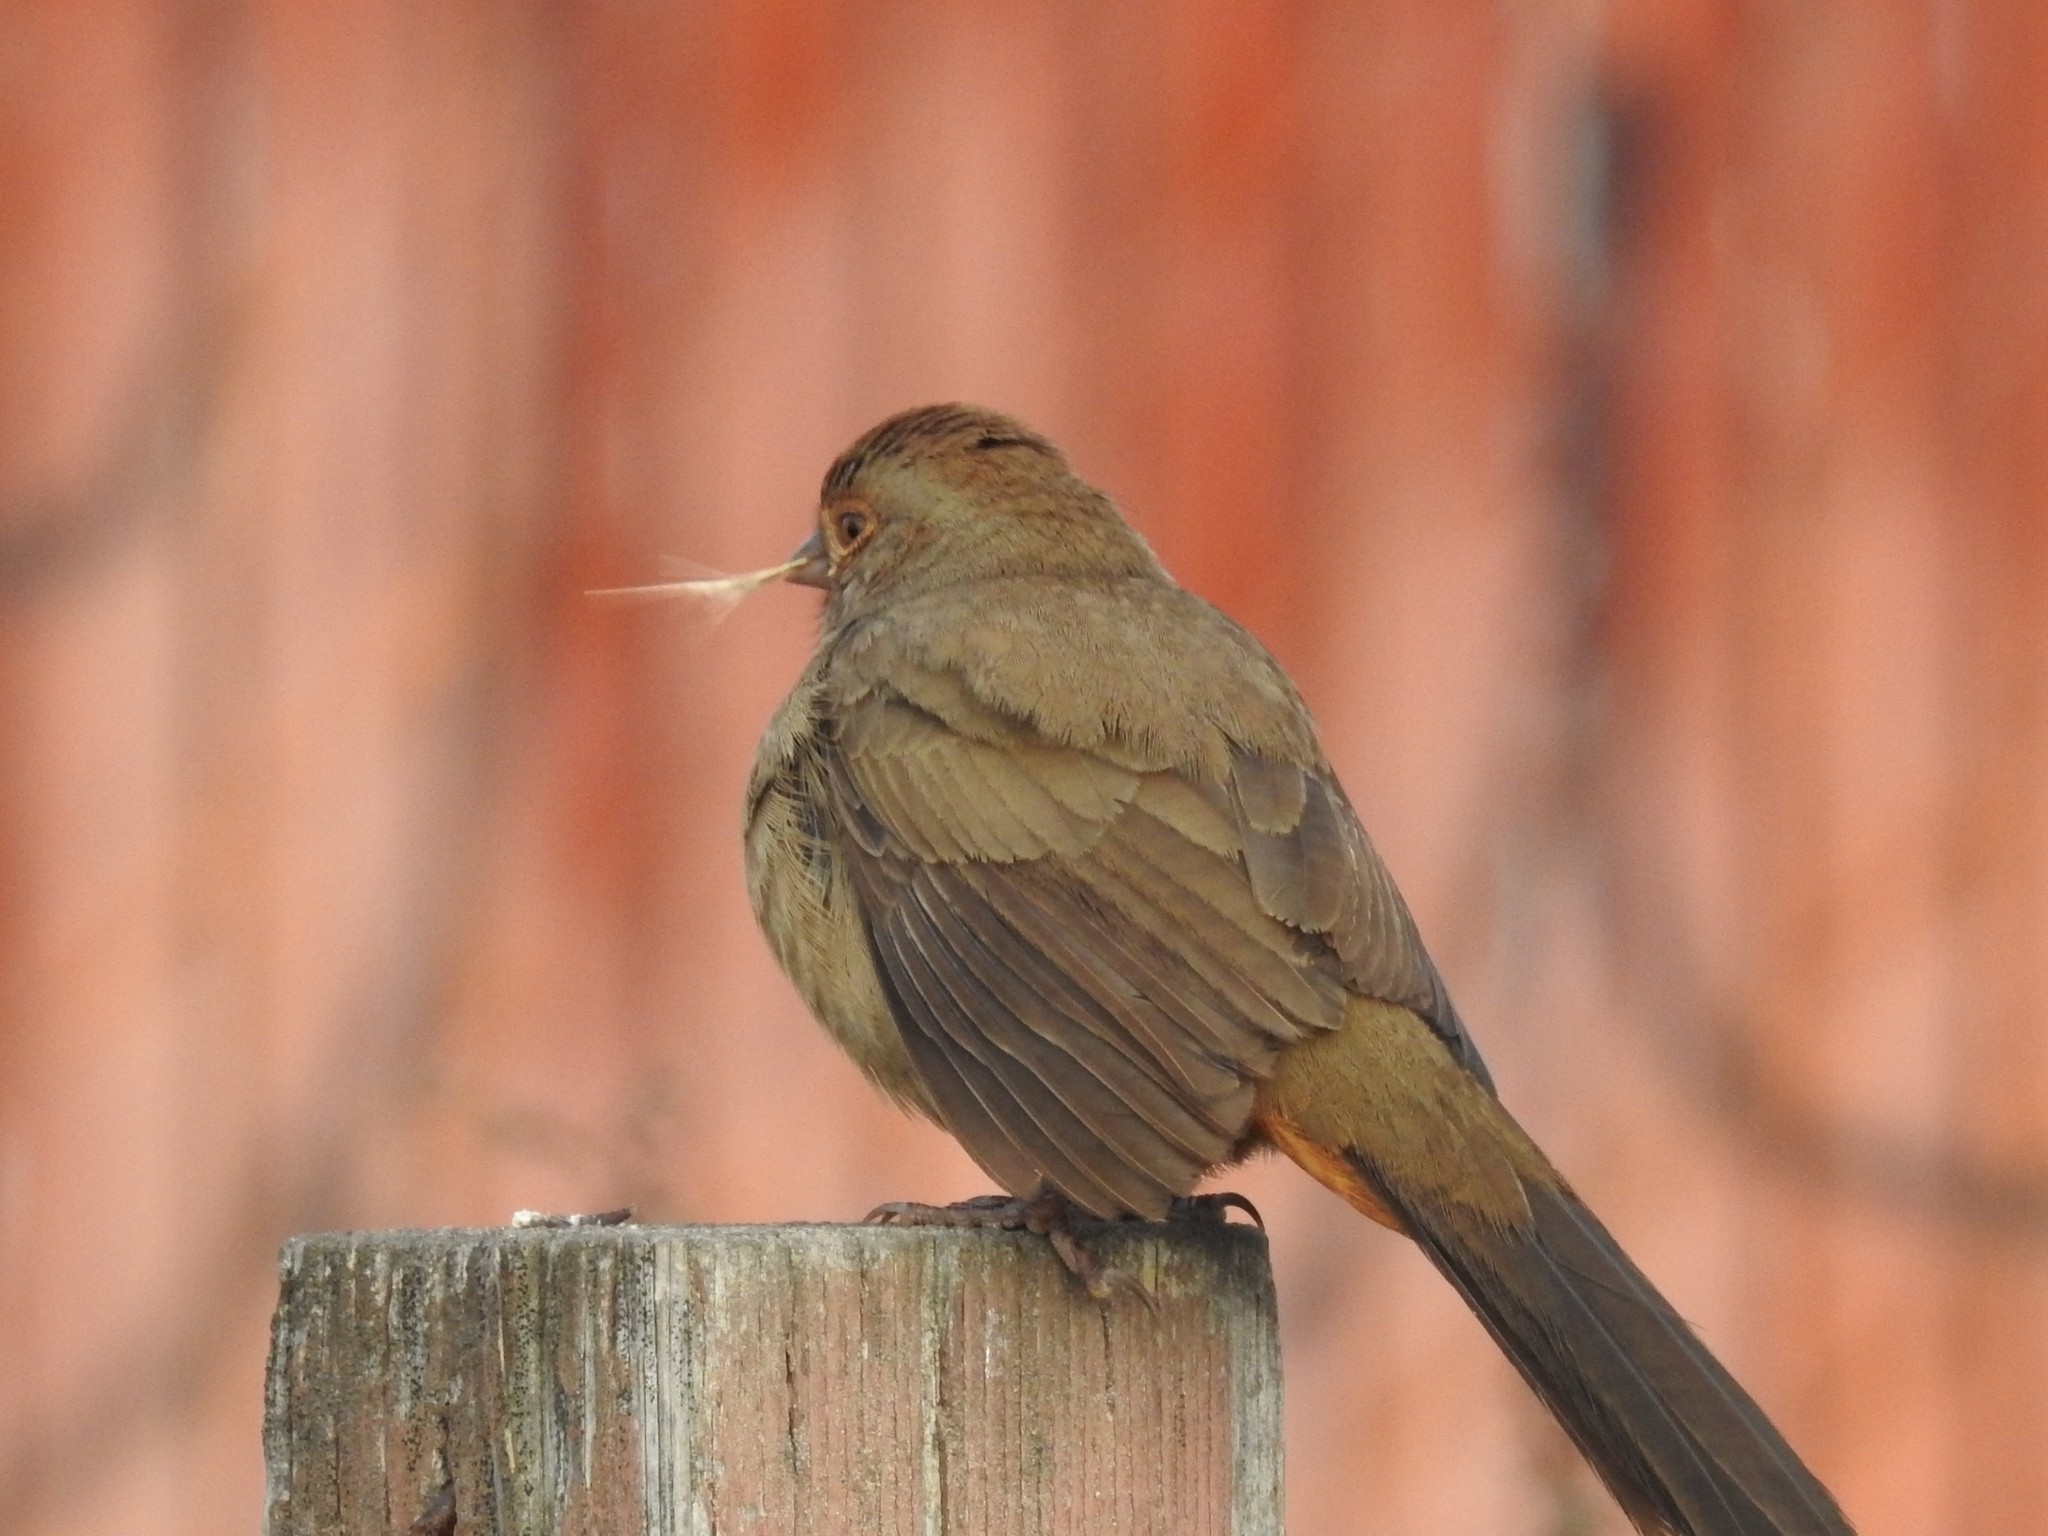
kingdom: Animalia
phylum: Chordata
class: Aves
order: Passeriformes
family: Passerellidae
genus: Melozone
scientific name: Melozone crissalis
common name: California towhee
